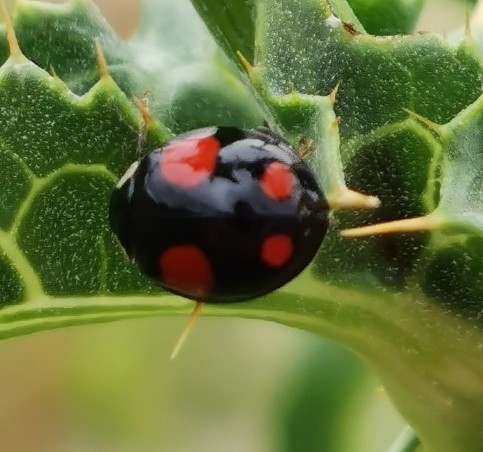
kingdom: Animalia
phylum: Arthropoda
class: Insecta
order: Coleoptera
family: Coccinellidae
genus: Harmonia
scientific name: Harmonia axyridis
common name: Harlequin ladybird
